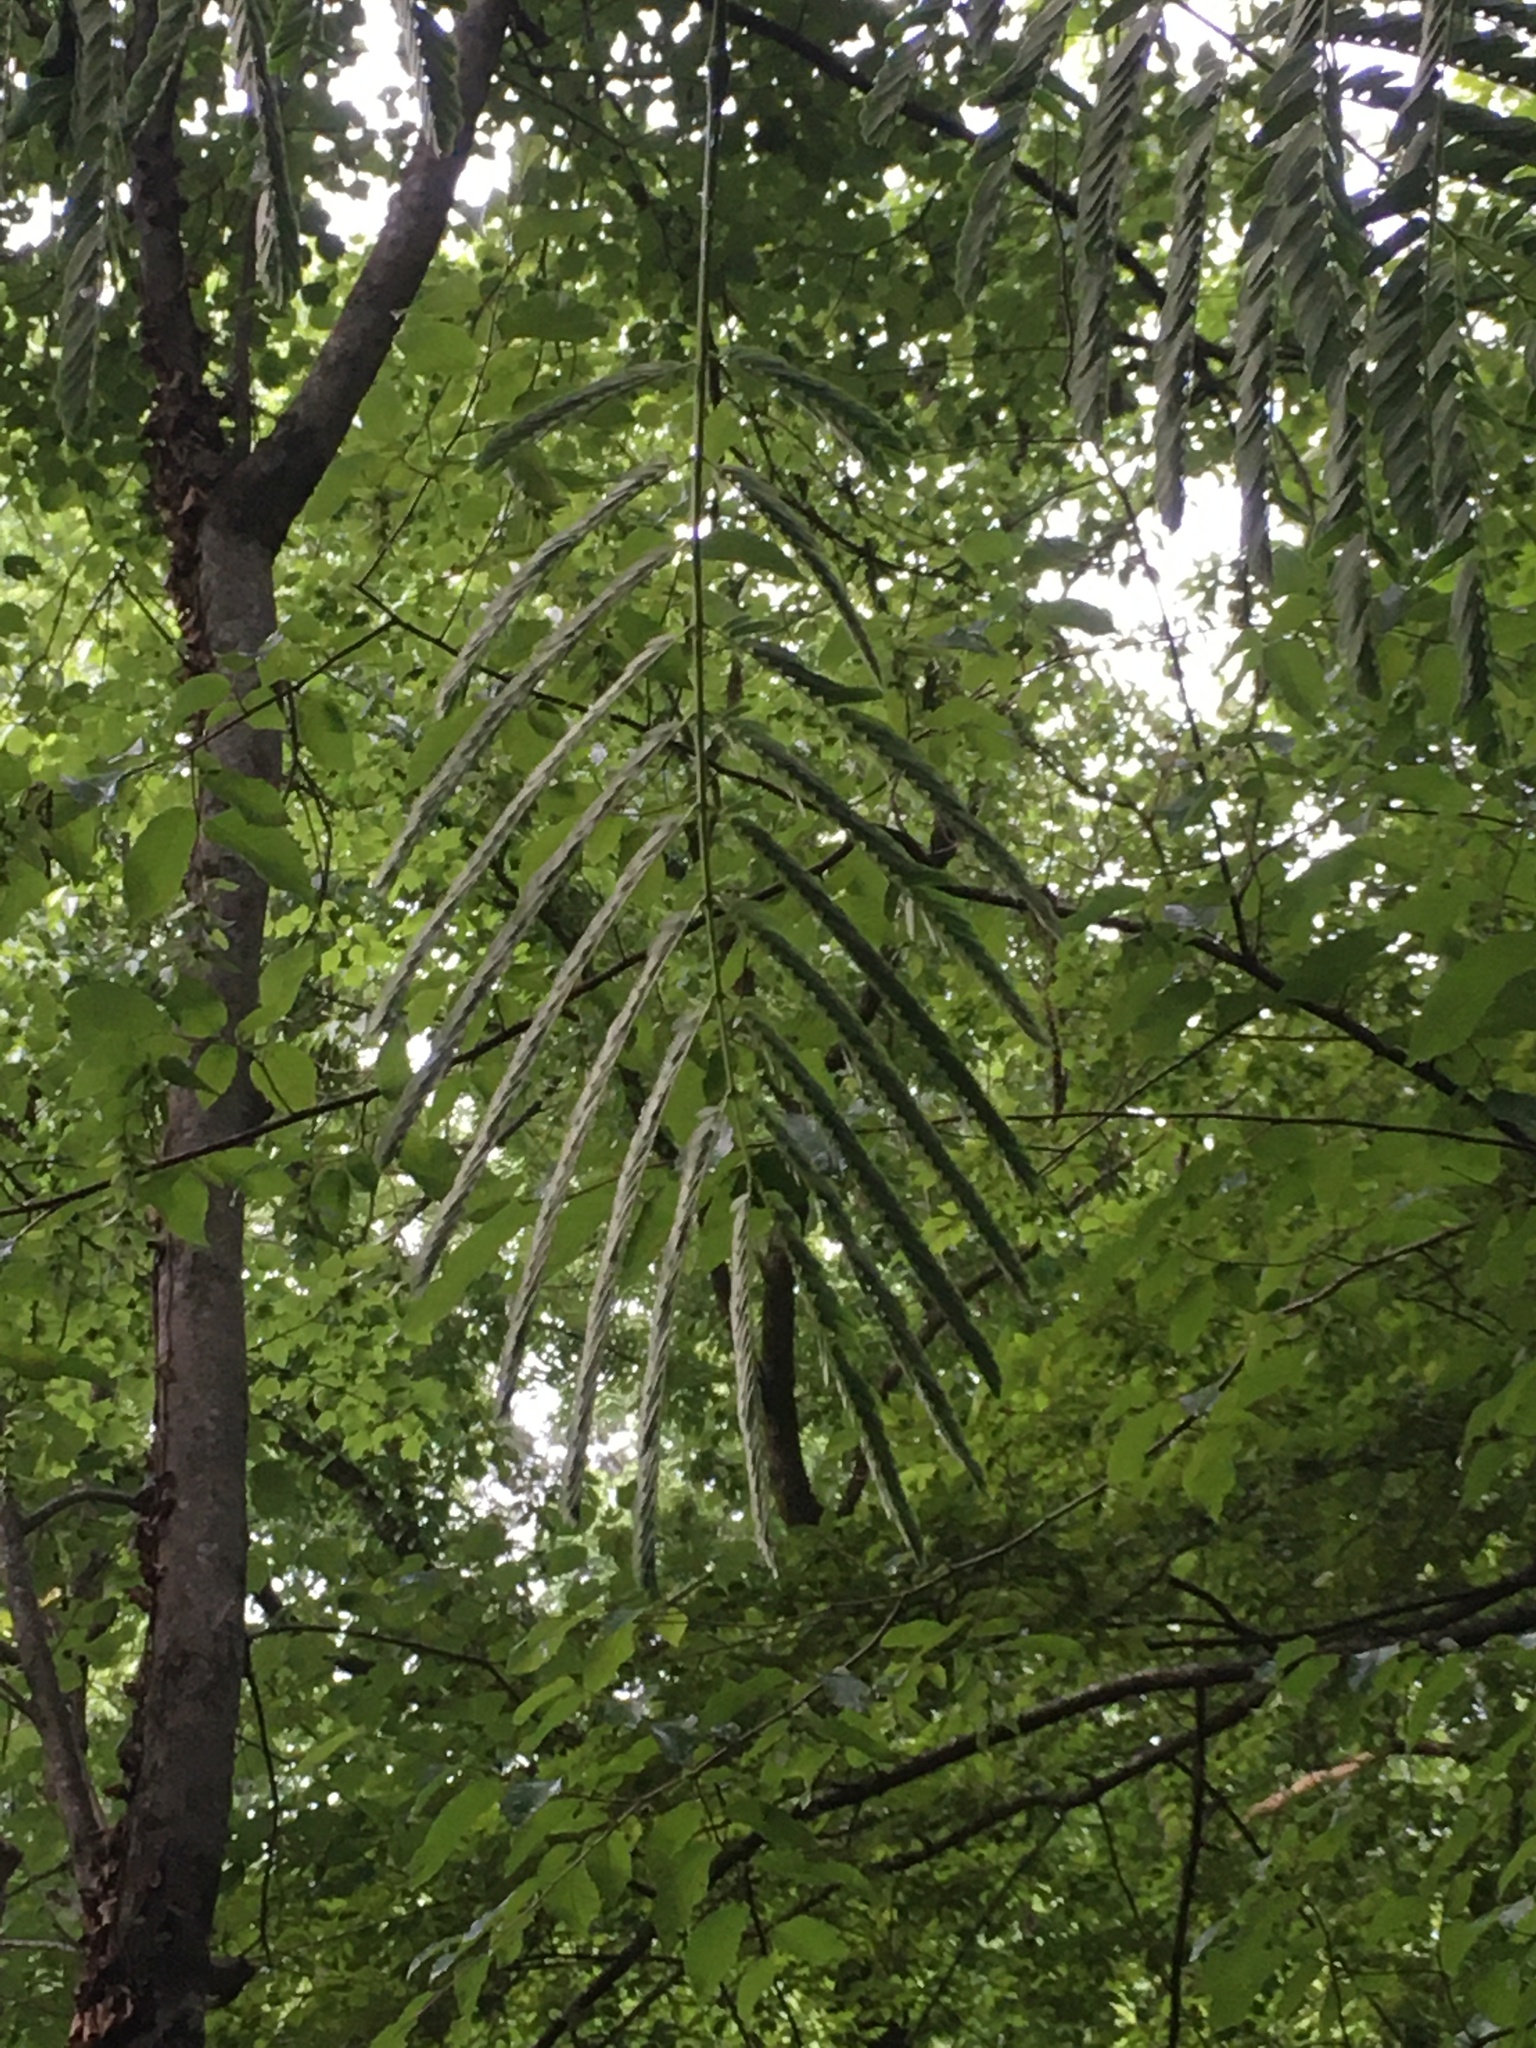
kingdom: Plantae
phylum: Tracheophyta
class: Magnoliopsida
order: Fabales
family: Fabaceae
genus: Albizia
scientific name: Albizia julibrissin
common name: Silktree
